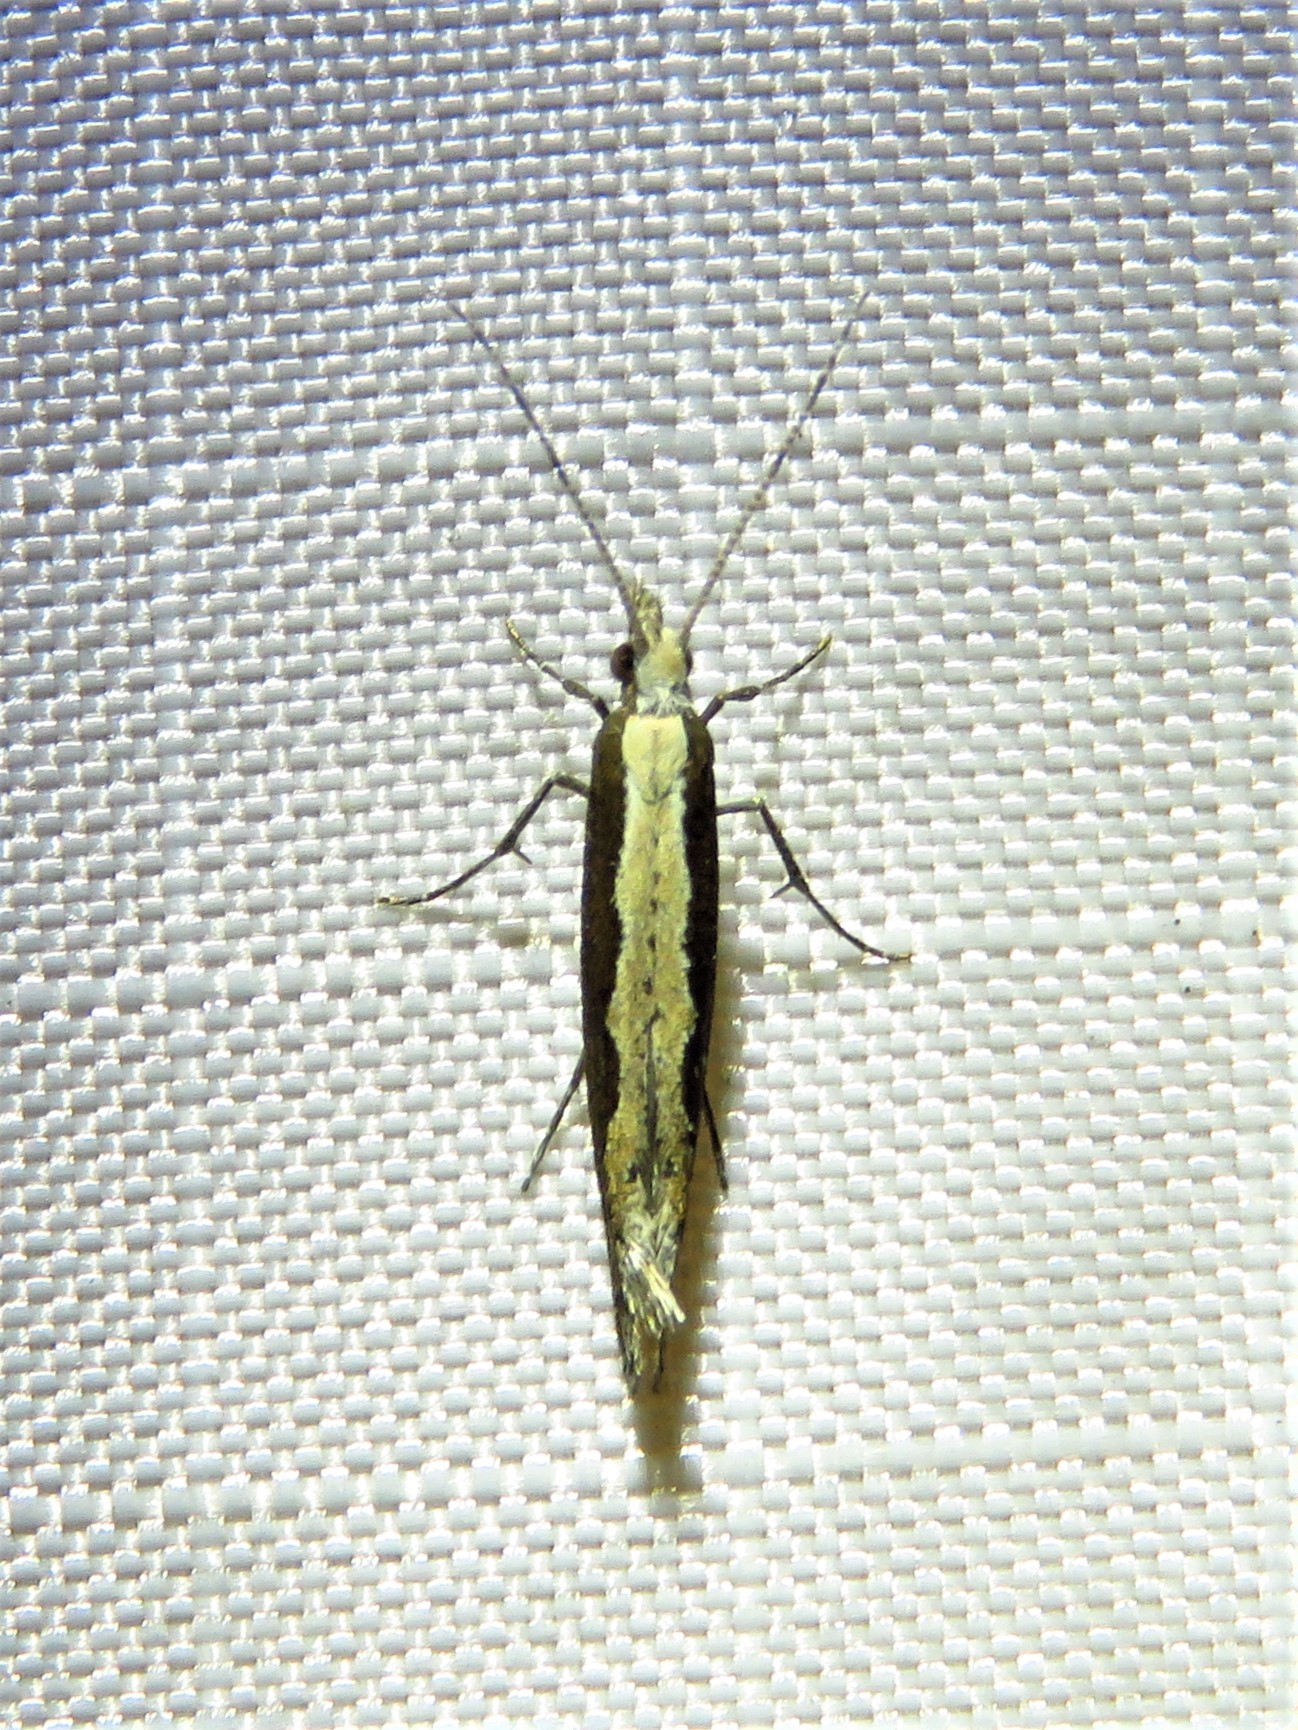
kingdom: Animalia
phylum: Arthropoda
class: Insecta
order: Lepidoptera
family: Plutellidae
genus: Plutella
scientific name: Plutella xylostella
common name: Diamond-back moth
